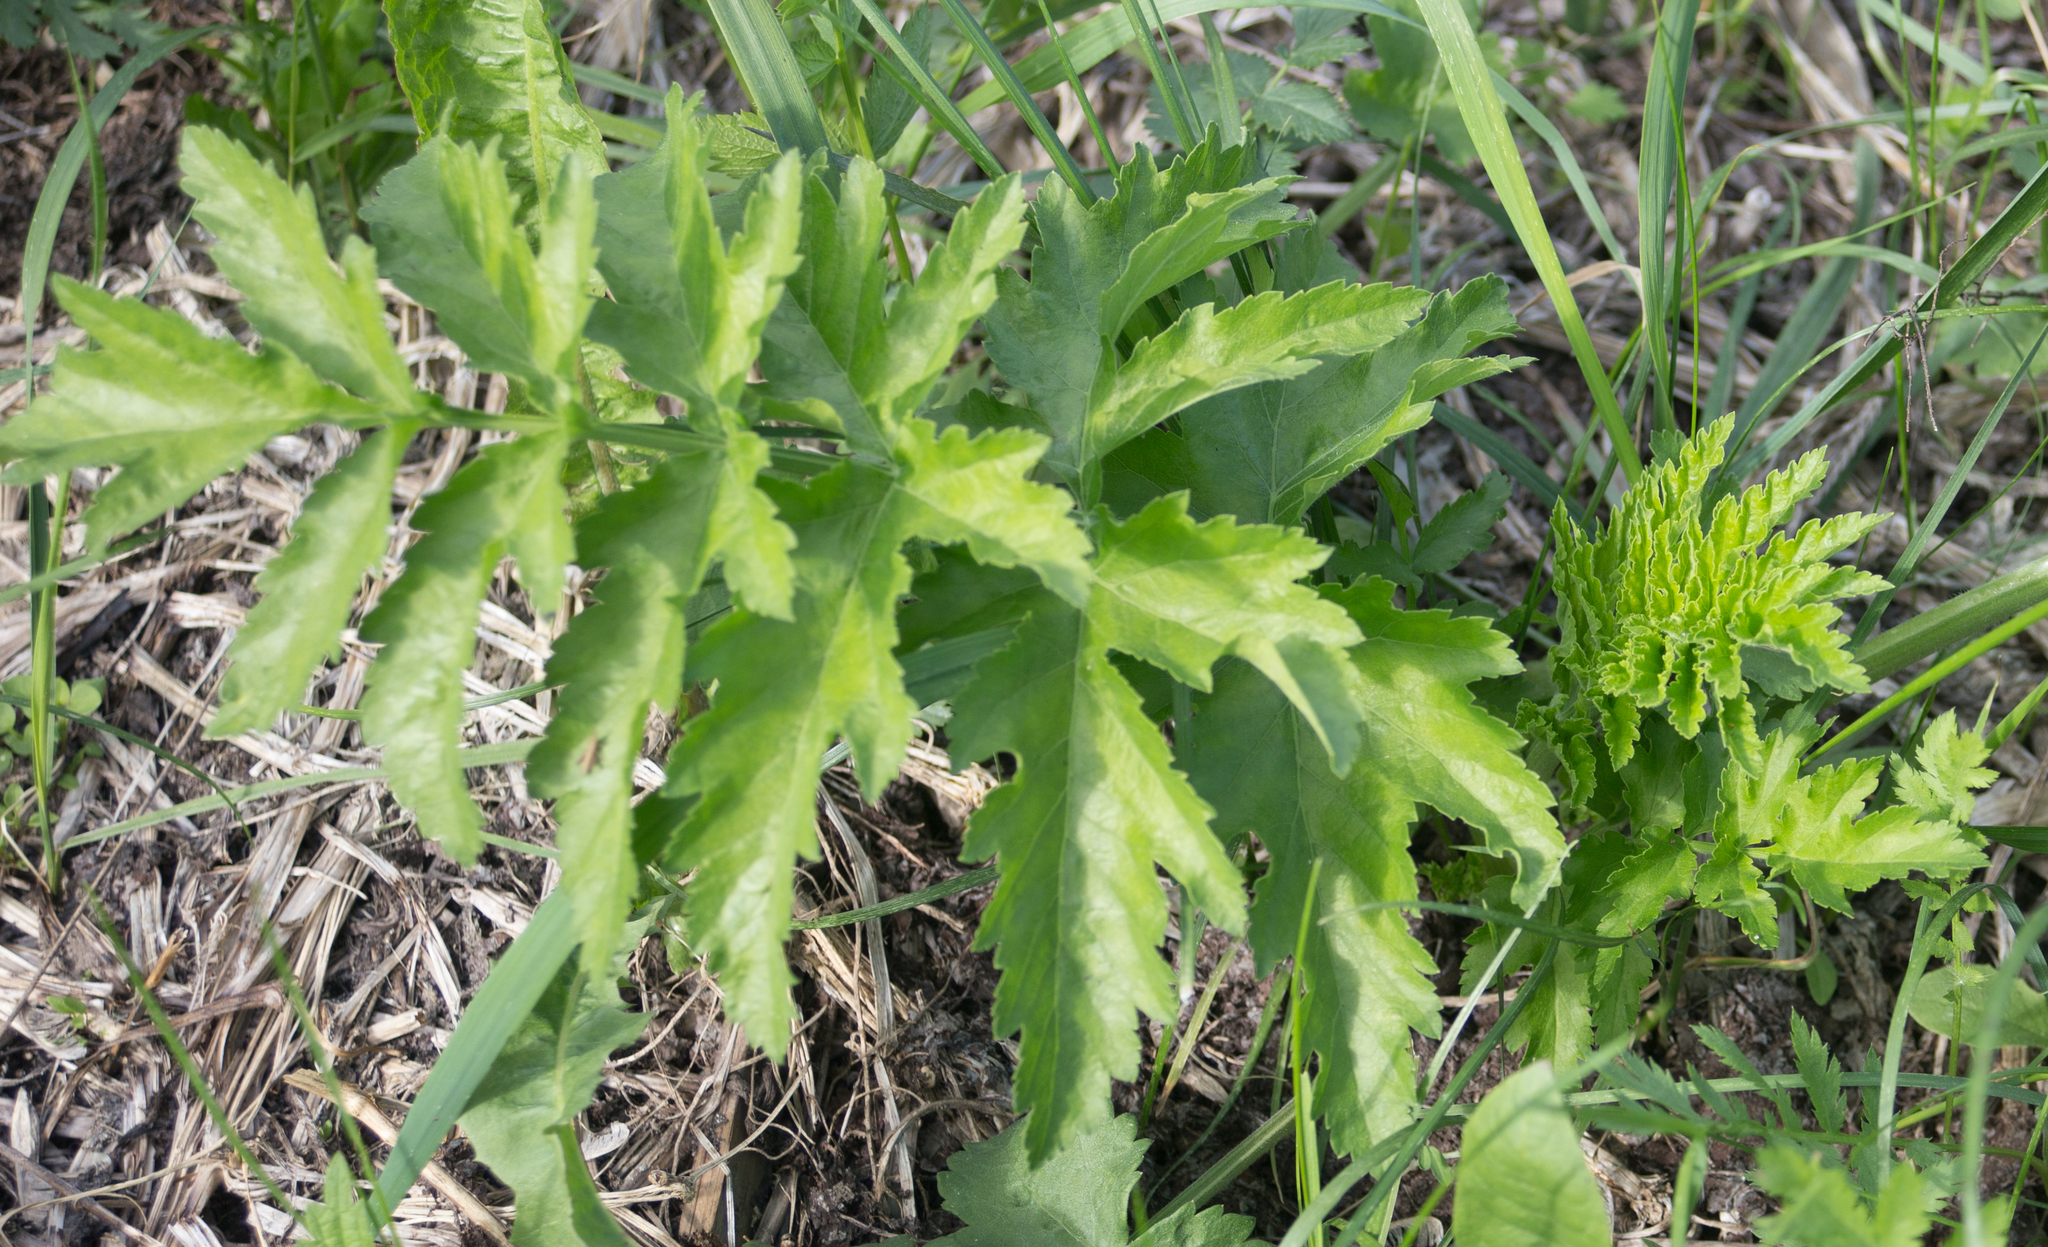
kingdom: Plantae
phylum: Tracheophyta
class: Magnoliopsida
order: Apiales
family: Apiaceae
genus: Pastinaca
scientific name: Pastinaca sativa
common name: Wild parsnip
